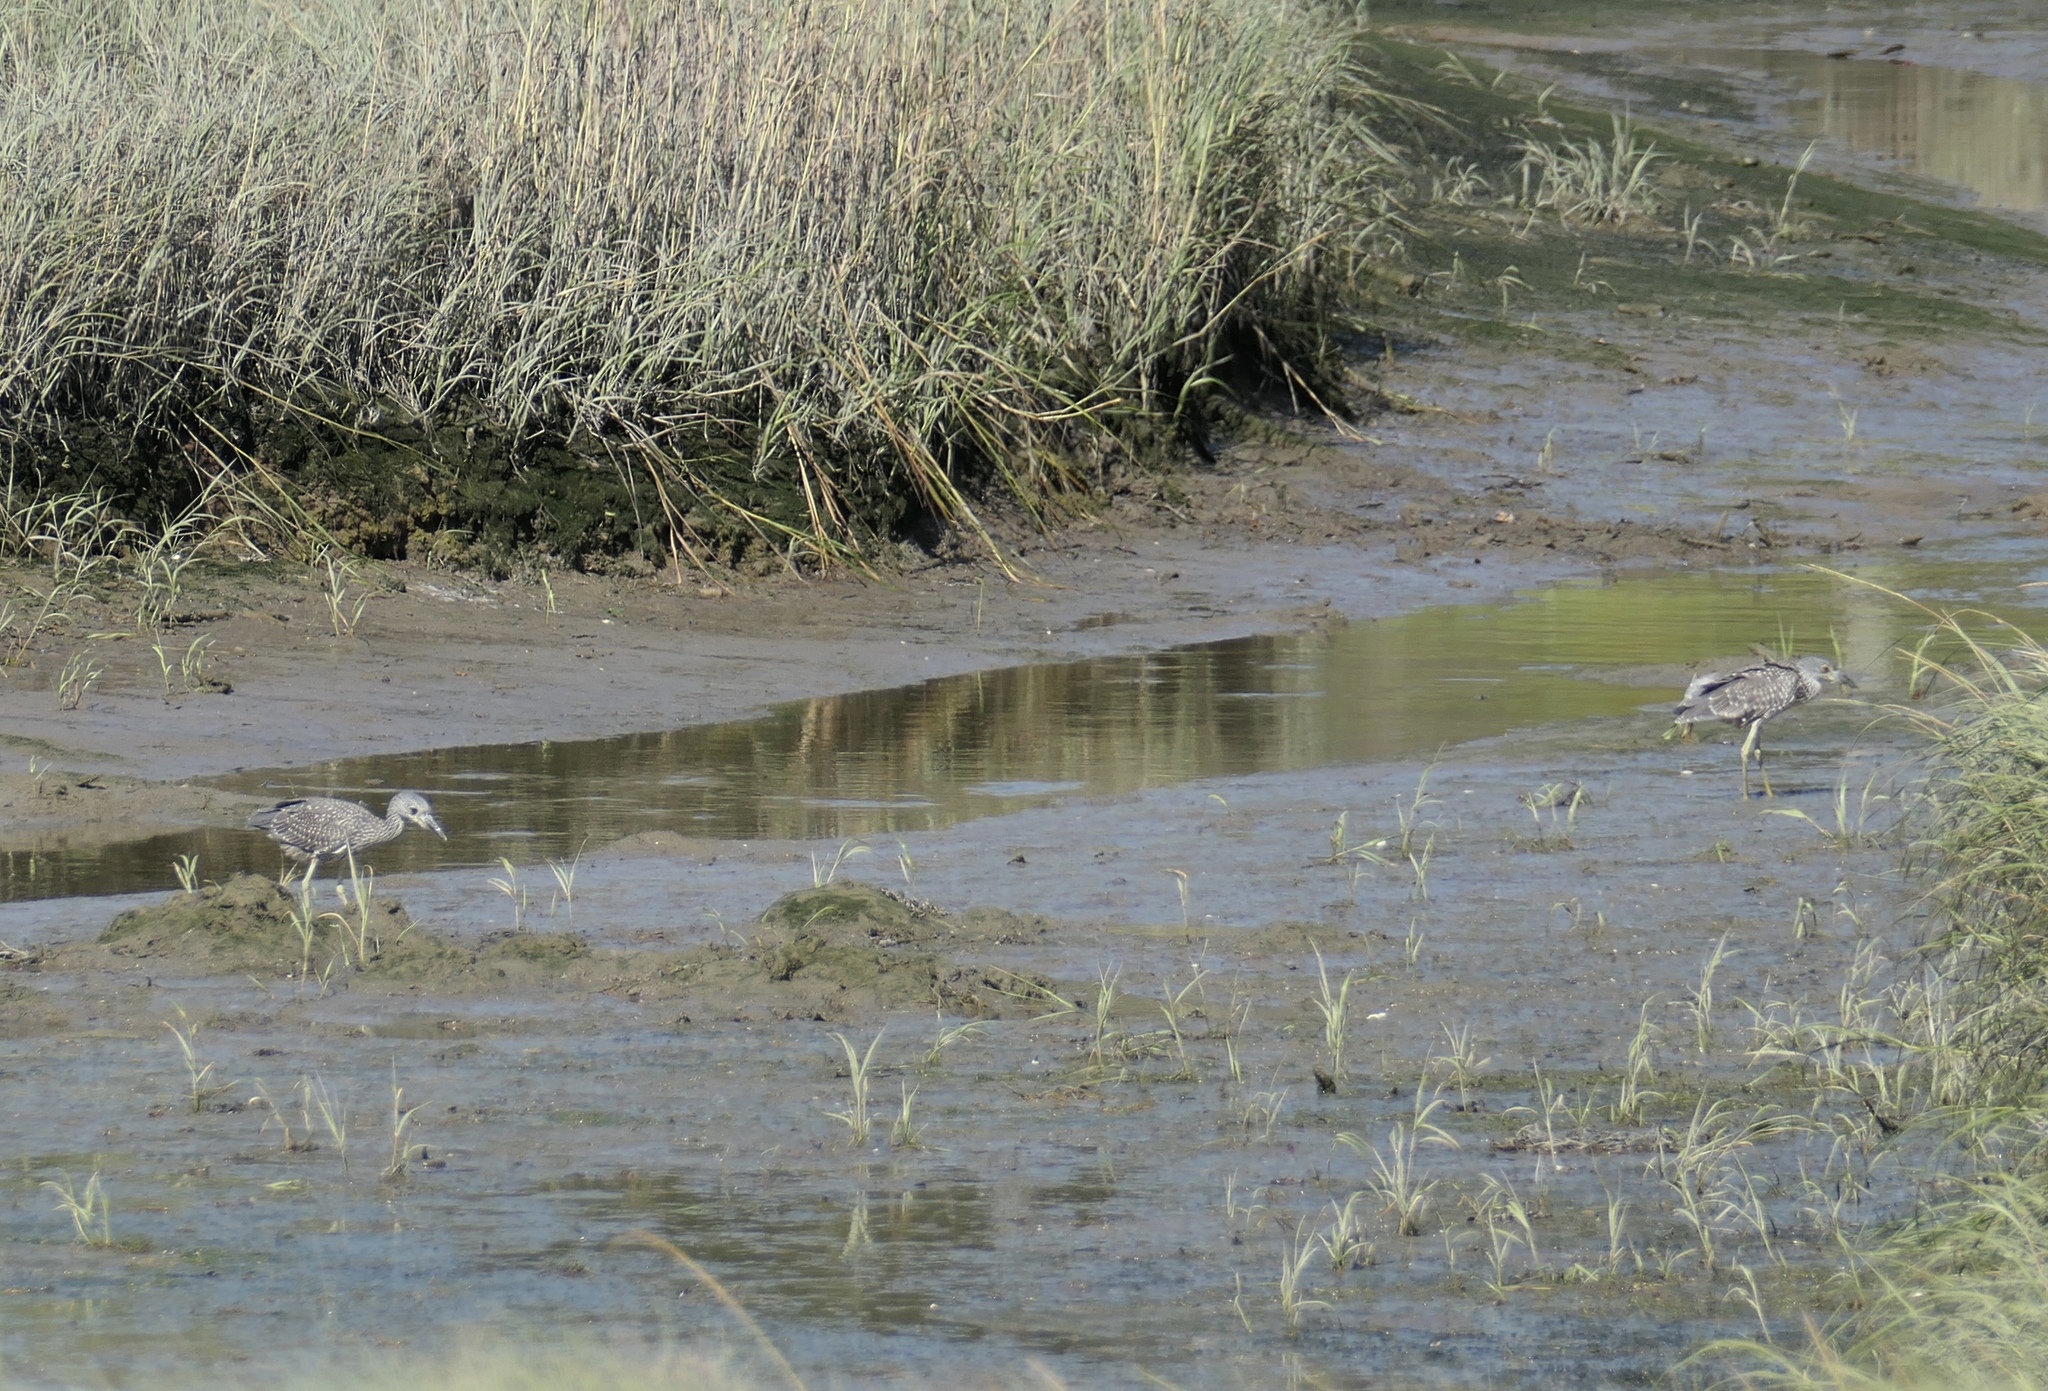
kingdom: Animalia
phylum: Chordata
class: Aves
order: Pelecaniformes
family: Ardeidae
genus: Nyctanassa
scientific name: Nyctanassa violacea
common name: Yellow-crowned night heron
